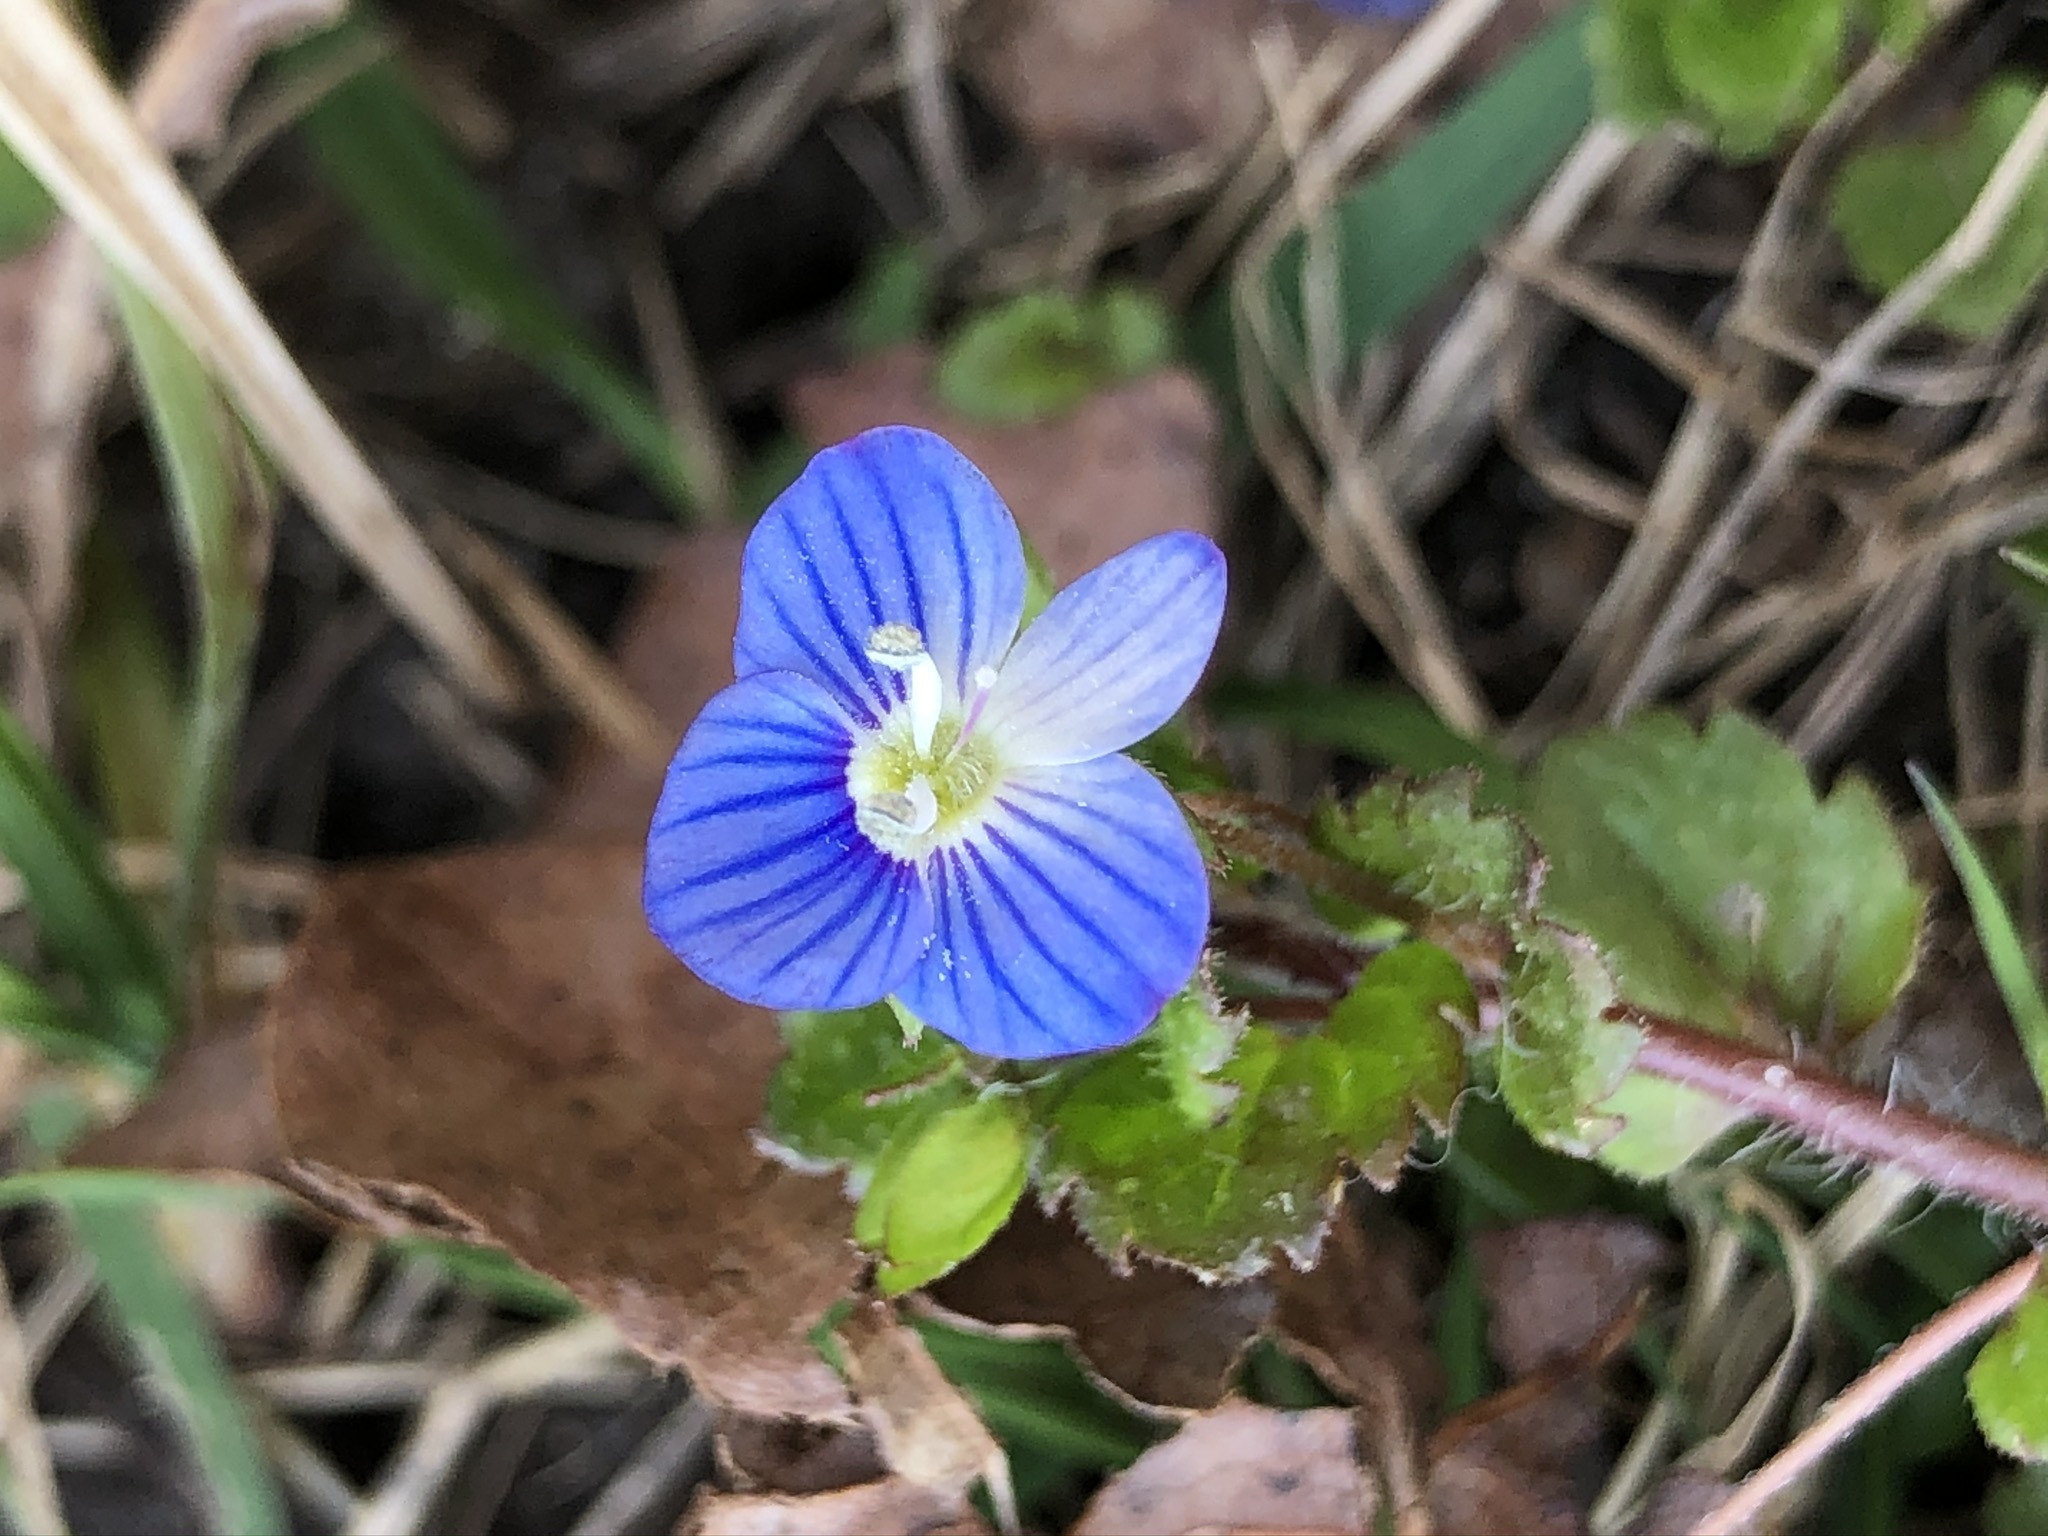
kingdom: Plantae
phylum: Tracheophyta
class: Magnoliopsida
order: Lamiales
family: Plantaginaceae
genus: Veronica
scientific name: Veronica persica
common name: Common field-speedwell
